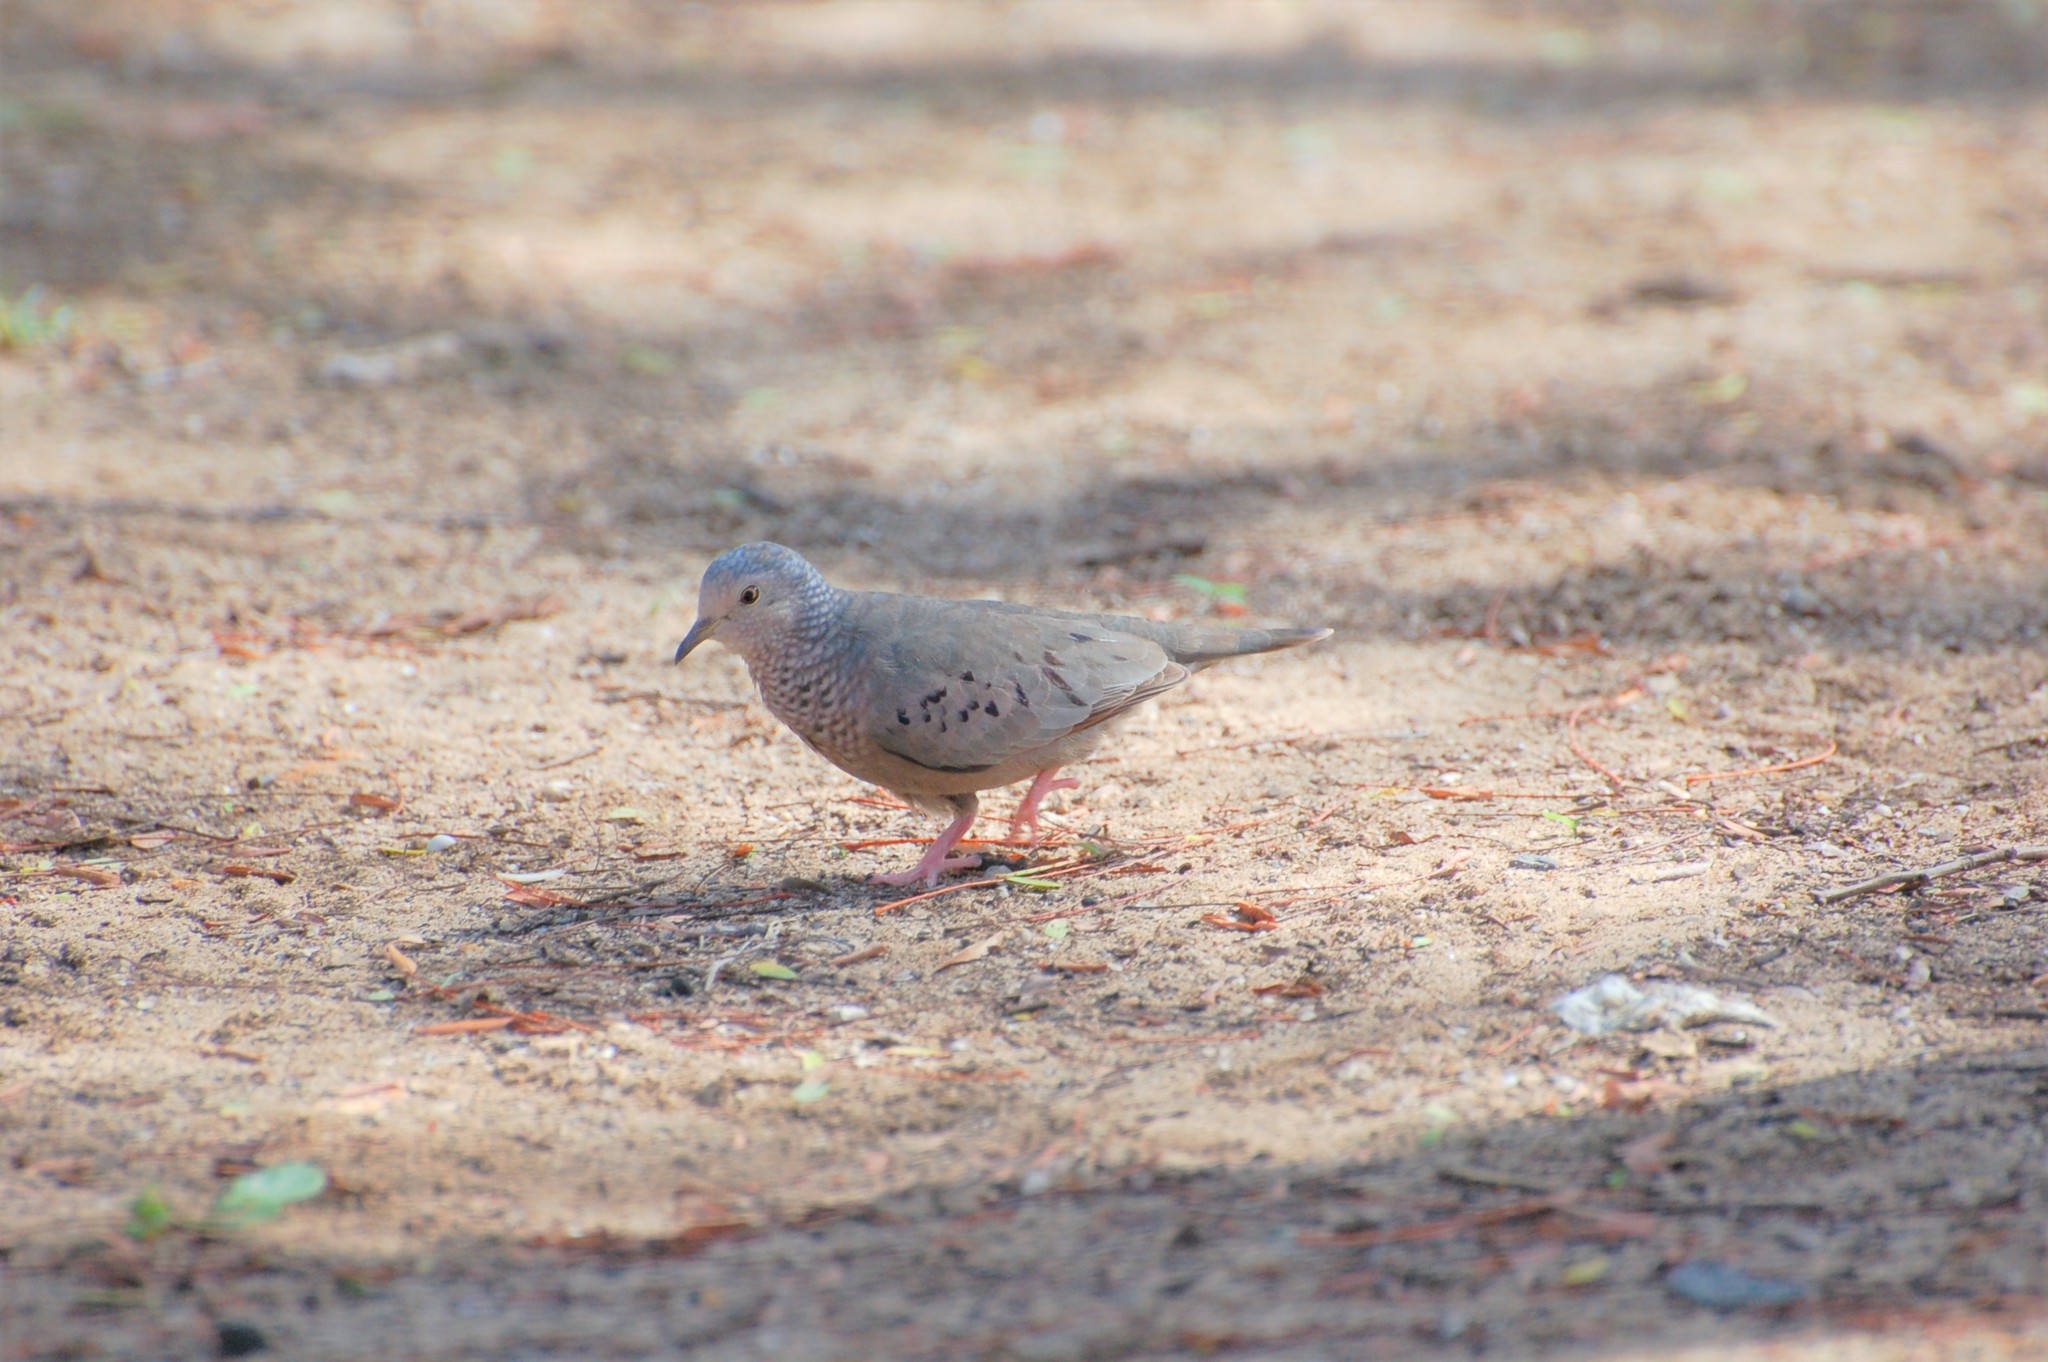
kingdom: Animalia
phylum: Chordata
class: Aves
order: Columbiformes
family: Columbidae
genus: Columbina
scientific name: Columbina passerina
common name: Common ground-dove
